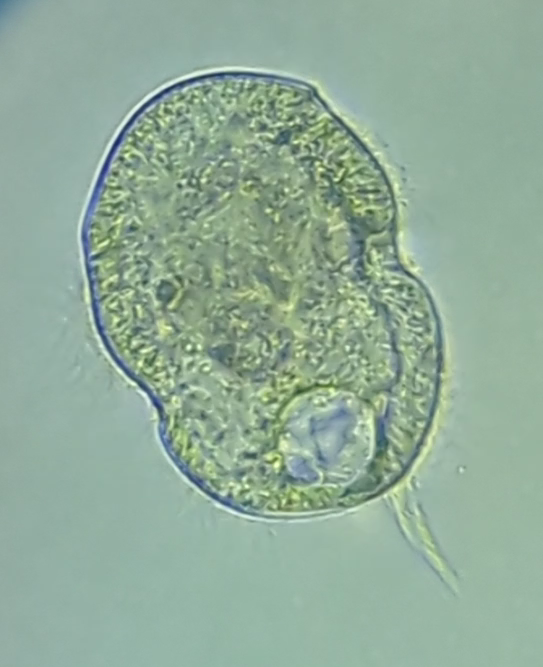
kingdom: Chromista
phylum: Ciliophora
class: Oligohymenophorea
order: Hymenostomatida
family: Urocentridae
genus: Urocentrum
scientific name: Urocentrum turbo
